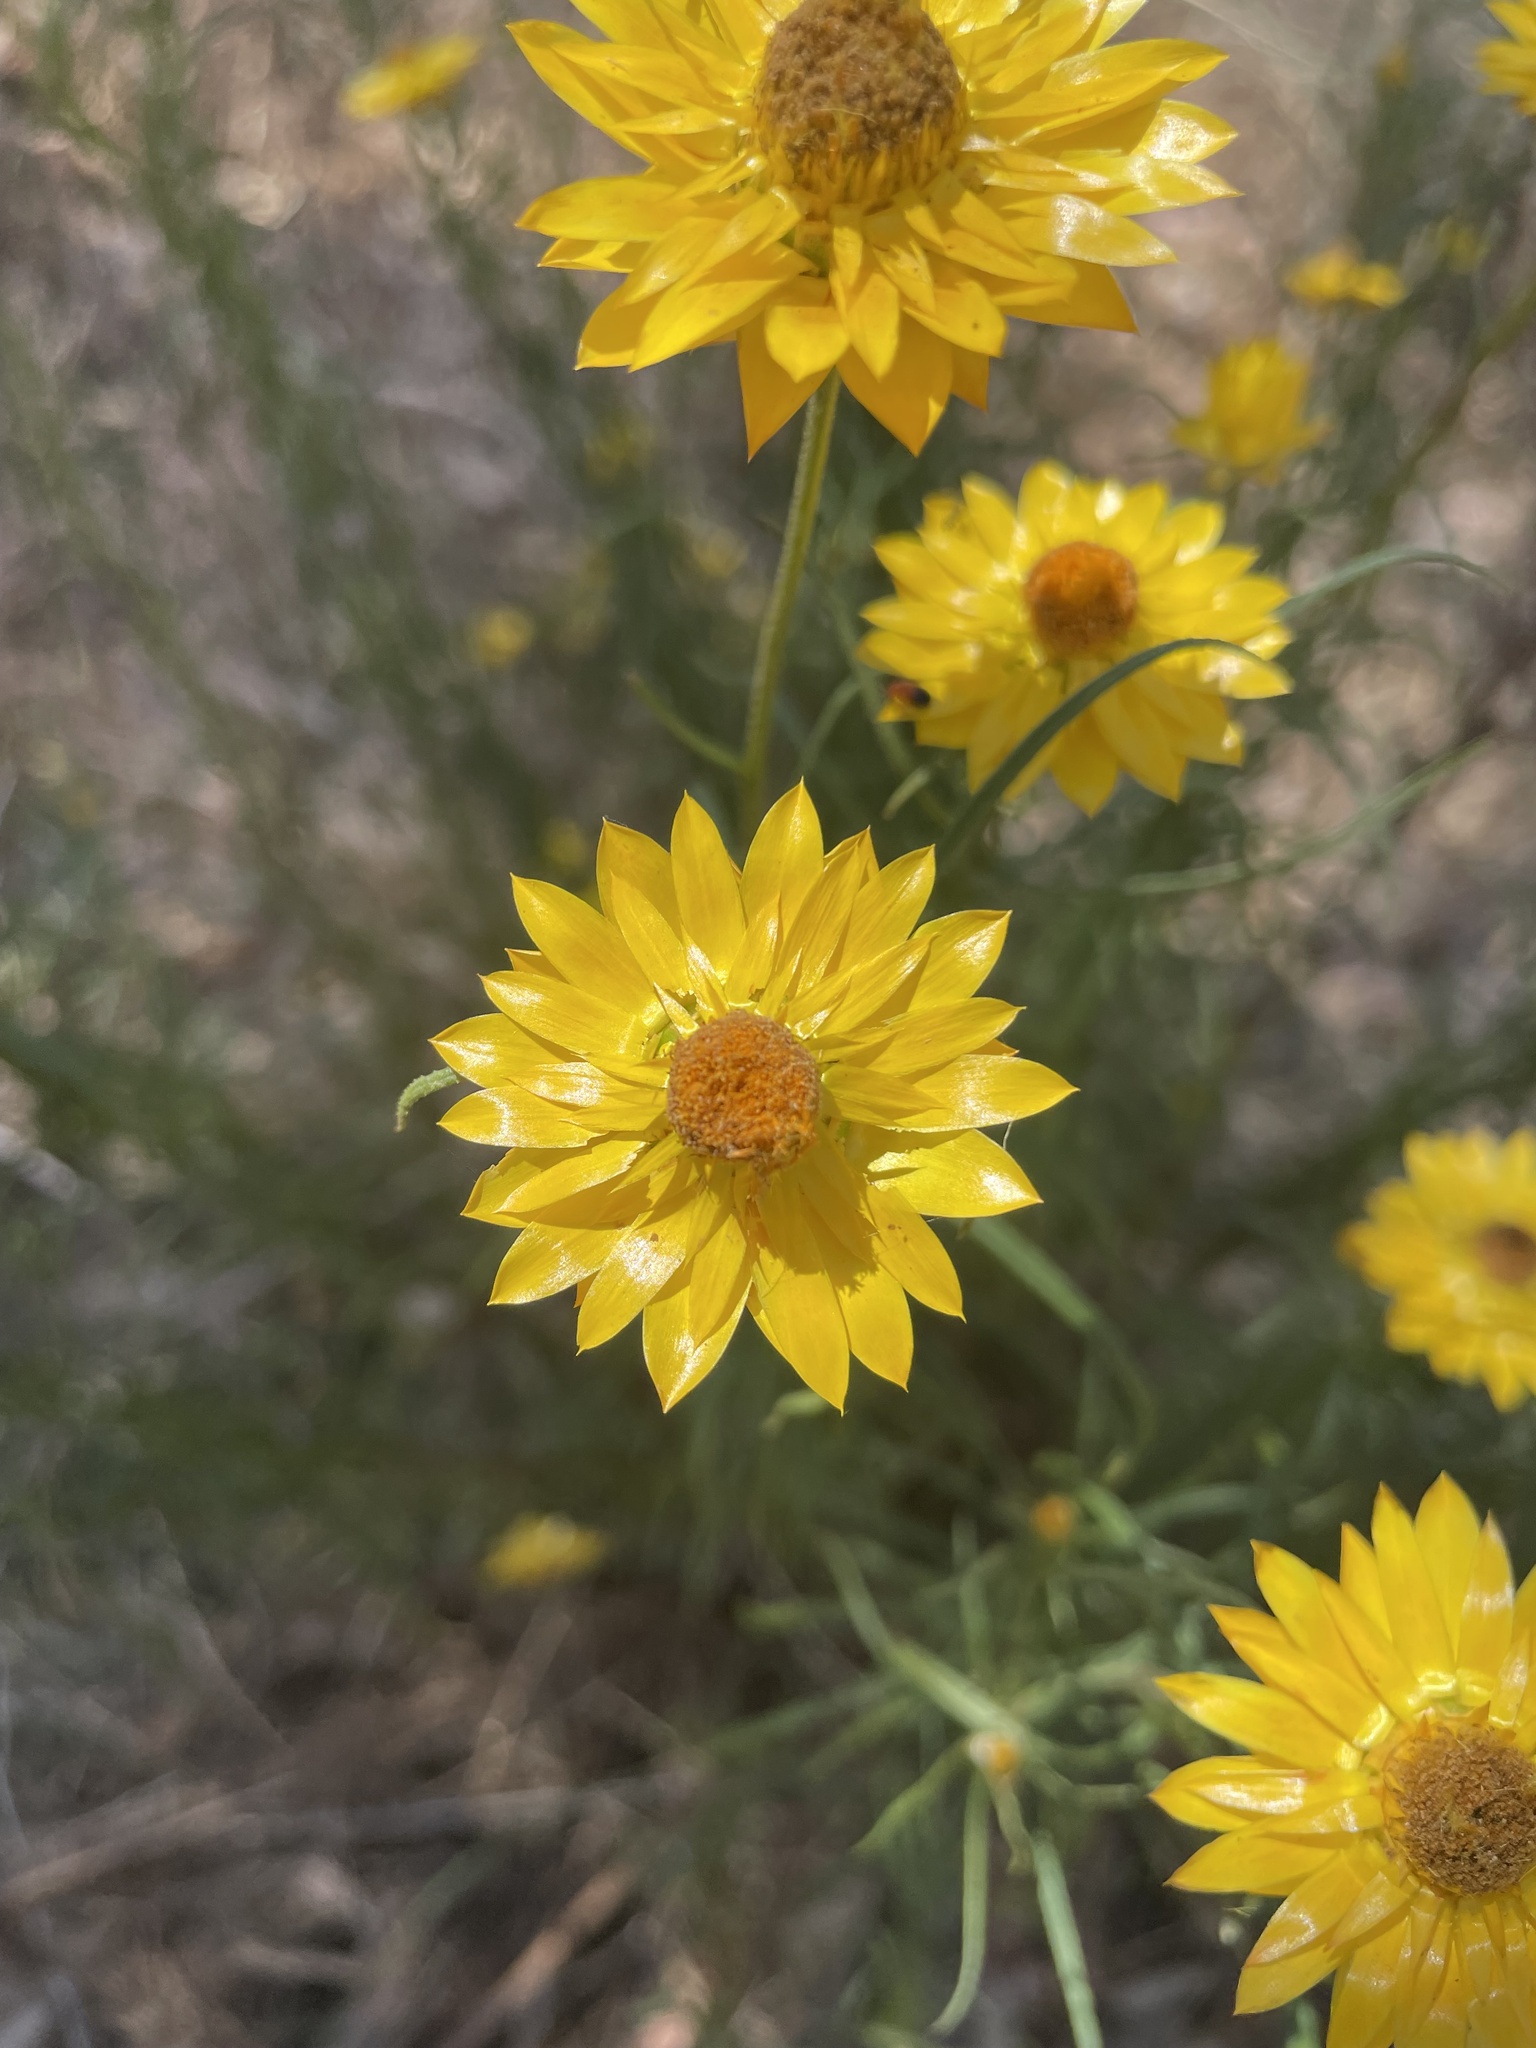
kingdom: Plantae
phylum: Tracheophyta
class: Magnoliopsida
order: Asterales
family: Asteraceae
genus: Xerochrysum
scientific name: Xerochrysum viscosum
